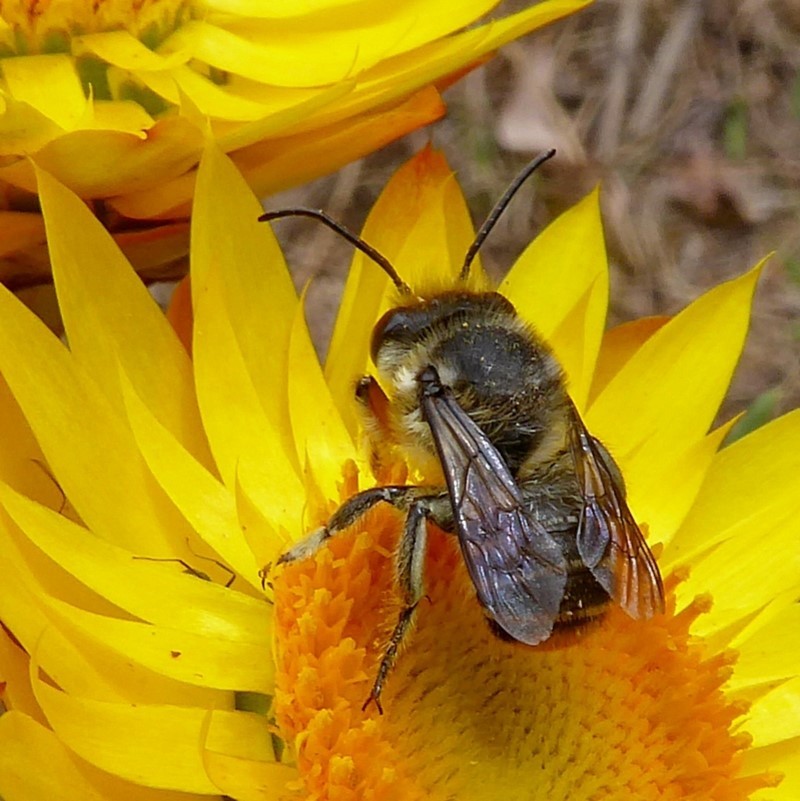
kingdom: Animalia
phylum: Arthropoda
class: Insecta
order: Hymenoptera
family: Megachilidae
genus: Megachile
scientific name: Megachile chrysopyga
